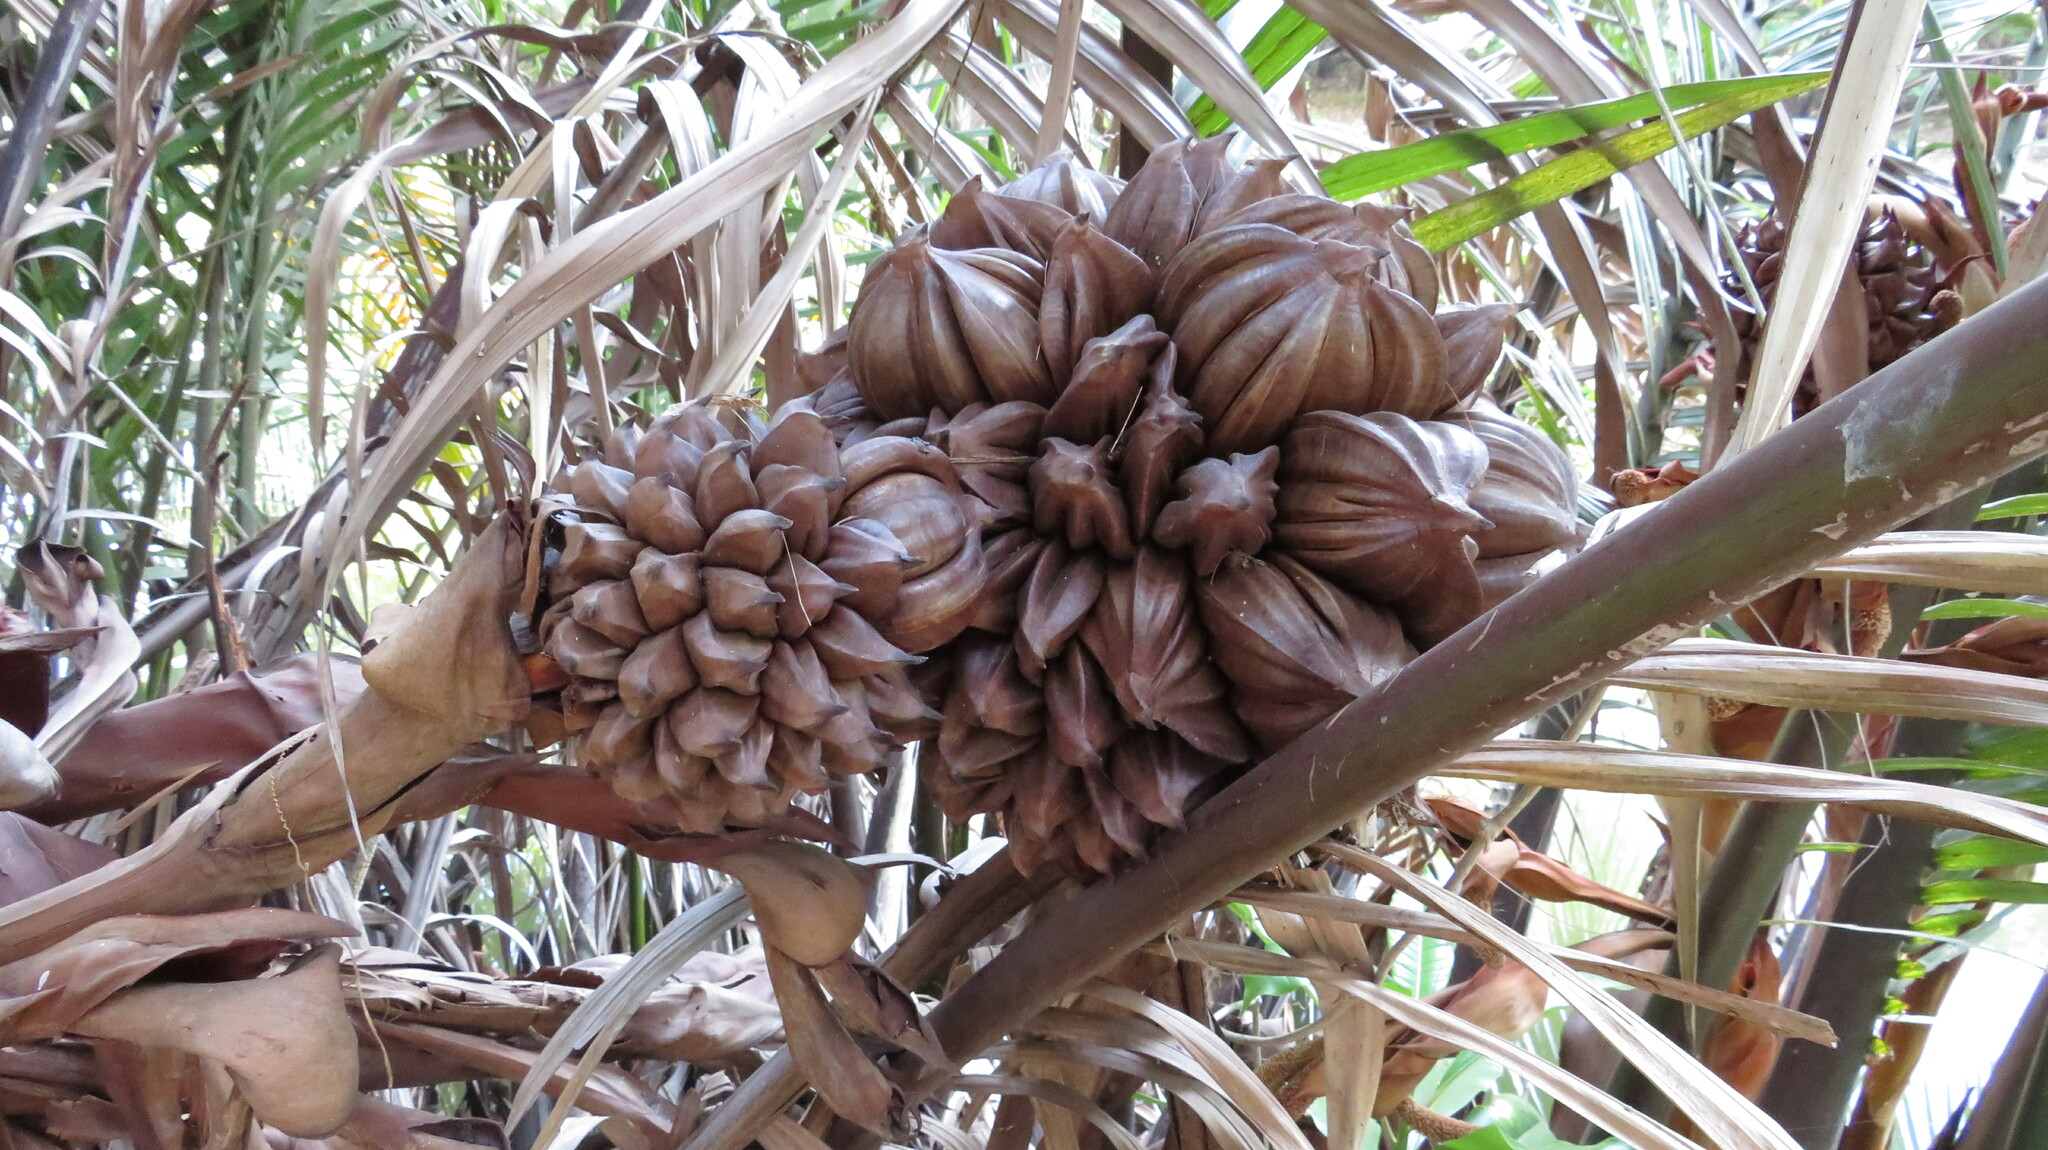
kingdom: Plantae
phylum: Tracheophyta
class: Liliopsida
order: Arecales
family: Arecaceae
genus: Nypa
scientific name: Nypa fruticans
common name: Mangrove palm
